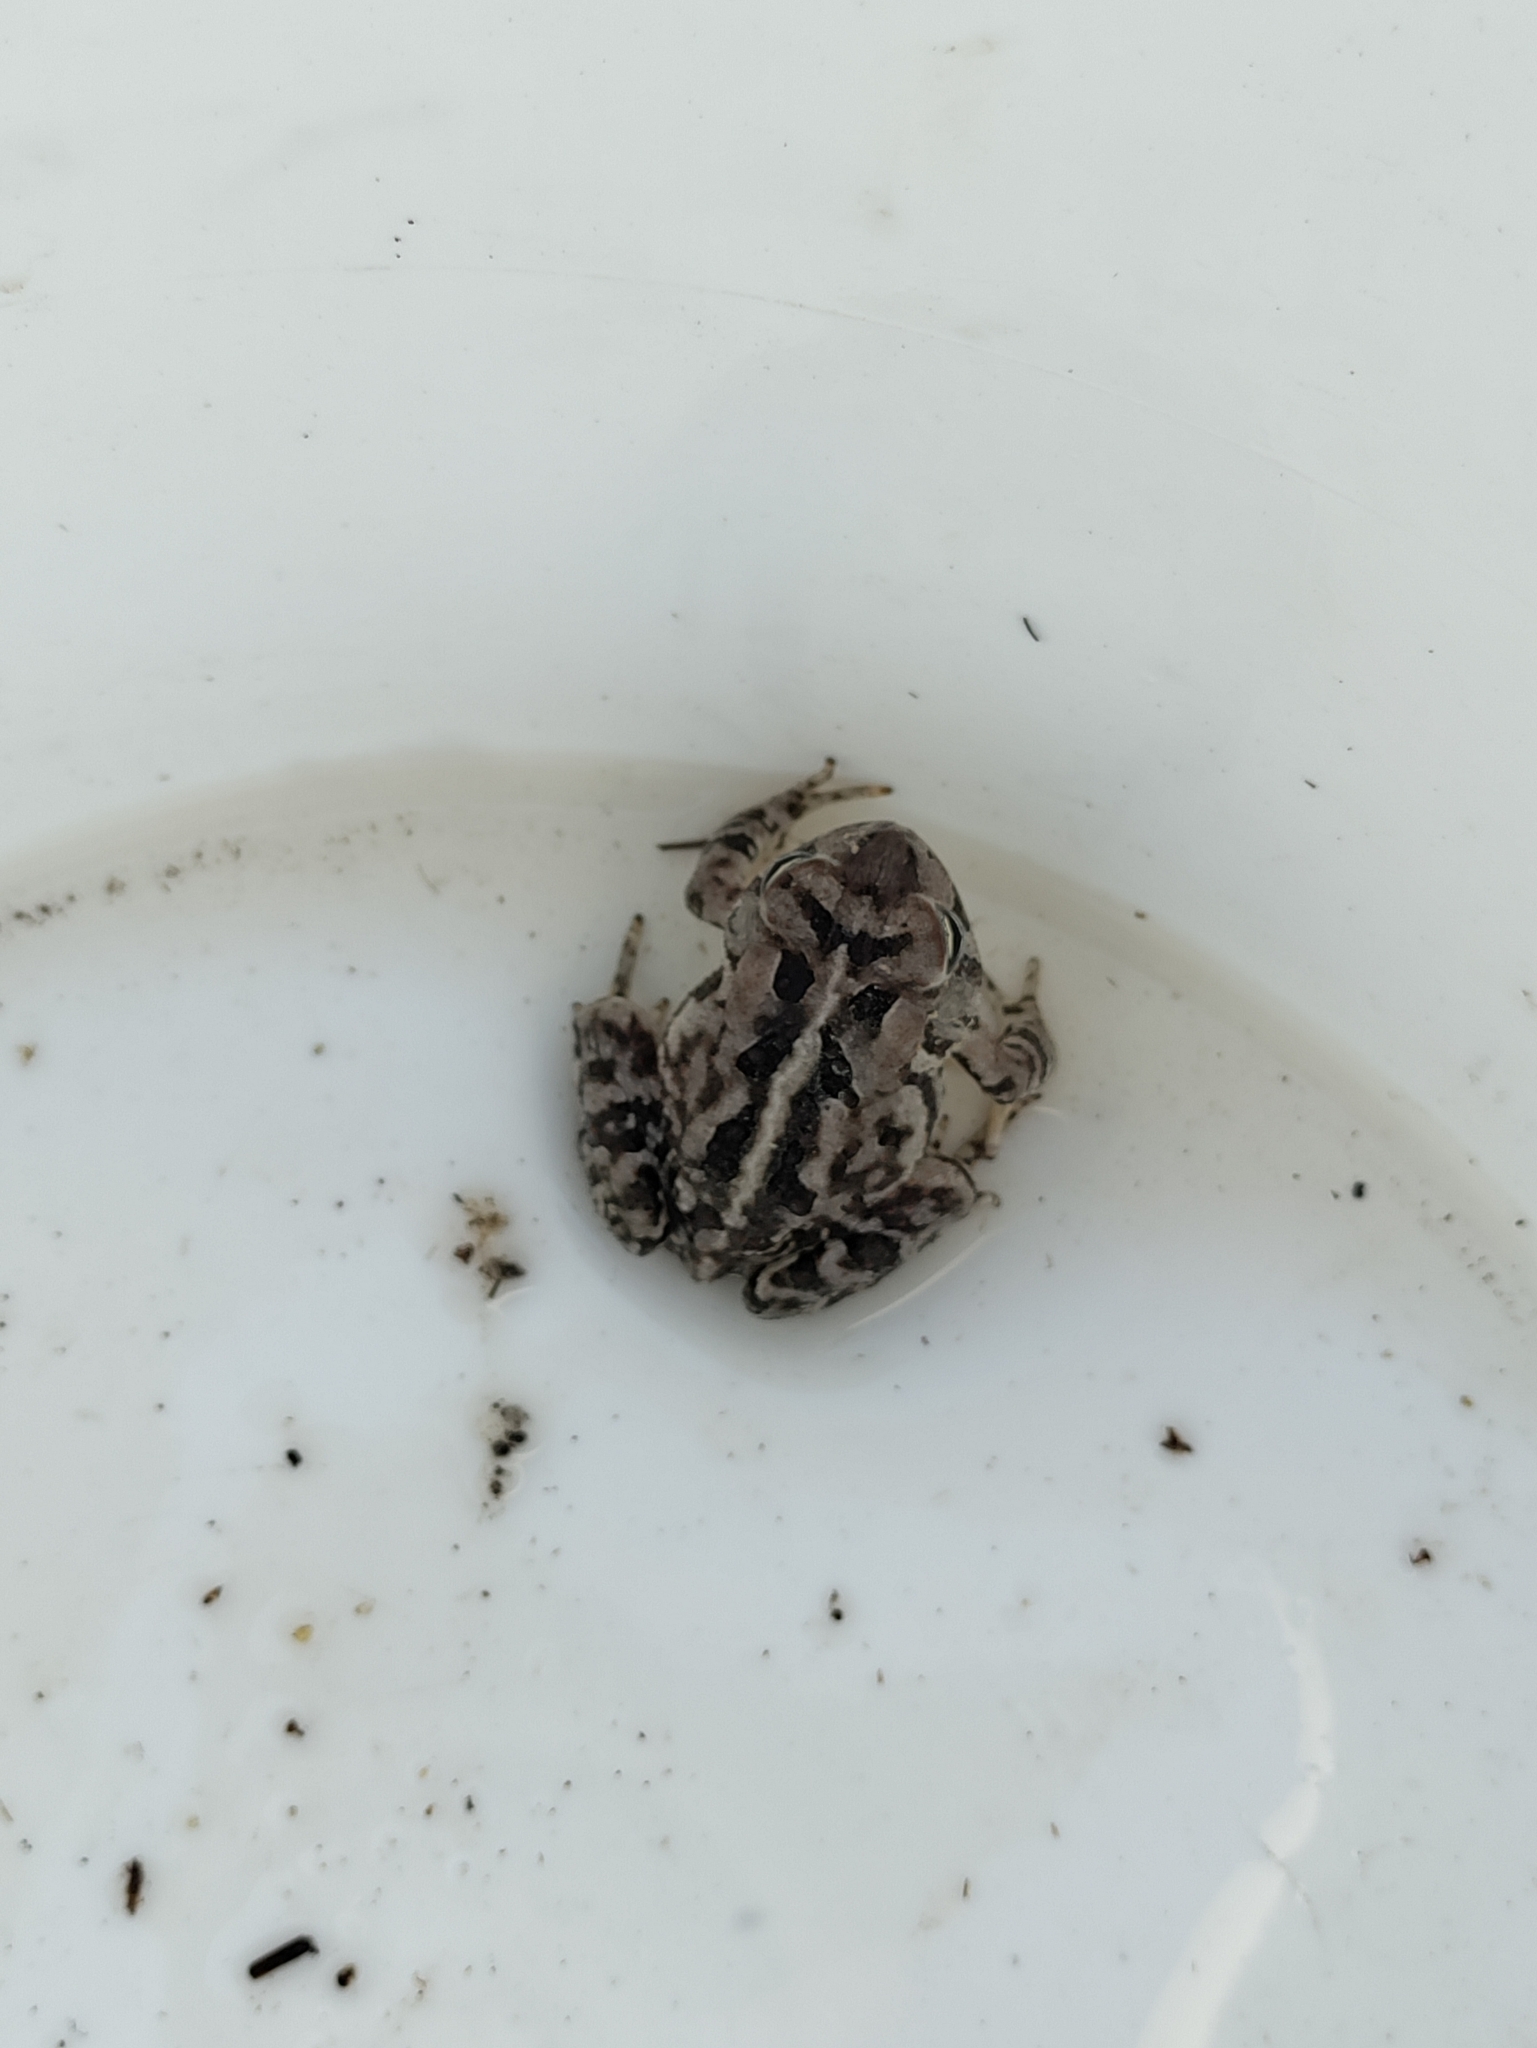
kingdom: Animalia
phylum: Chordata
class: Amphibia
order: Anura
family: Bufonidae
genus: Anaxyrus
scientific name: Anaxyrus fowleri
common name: Fowler's toad
